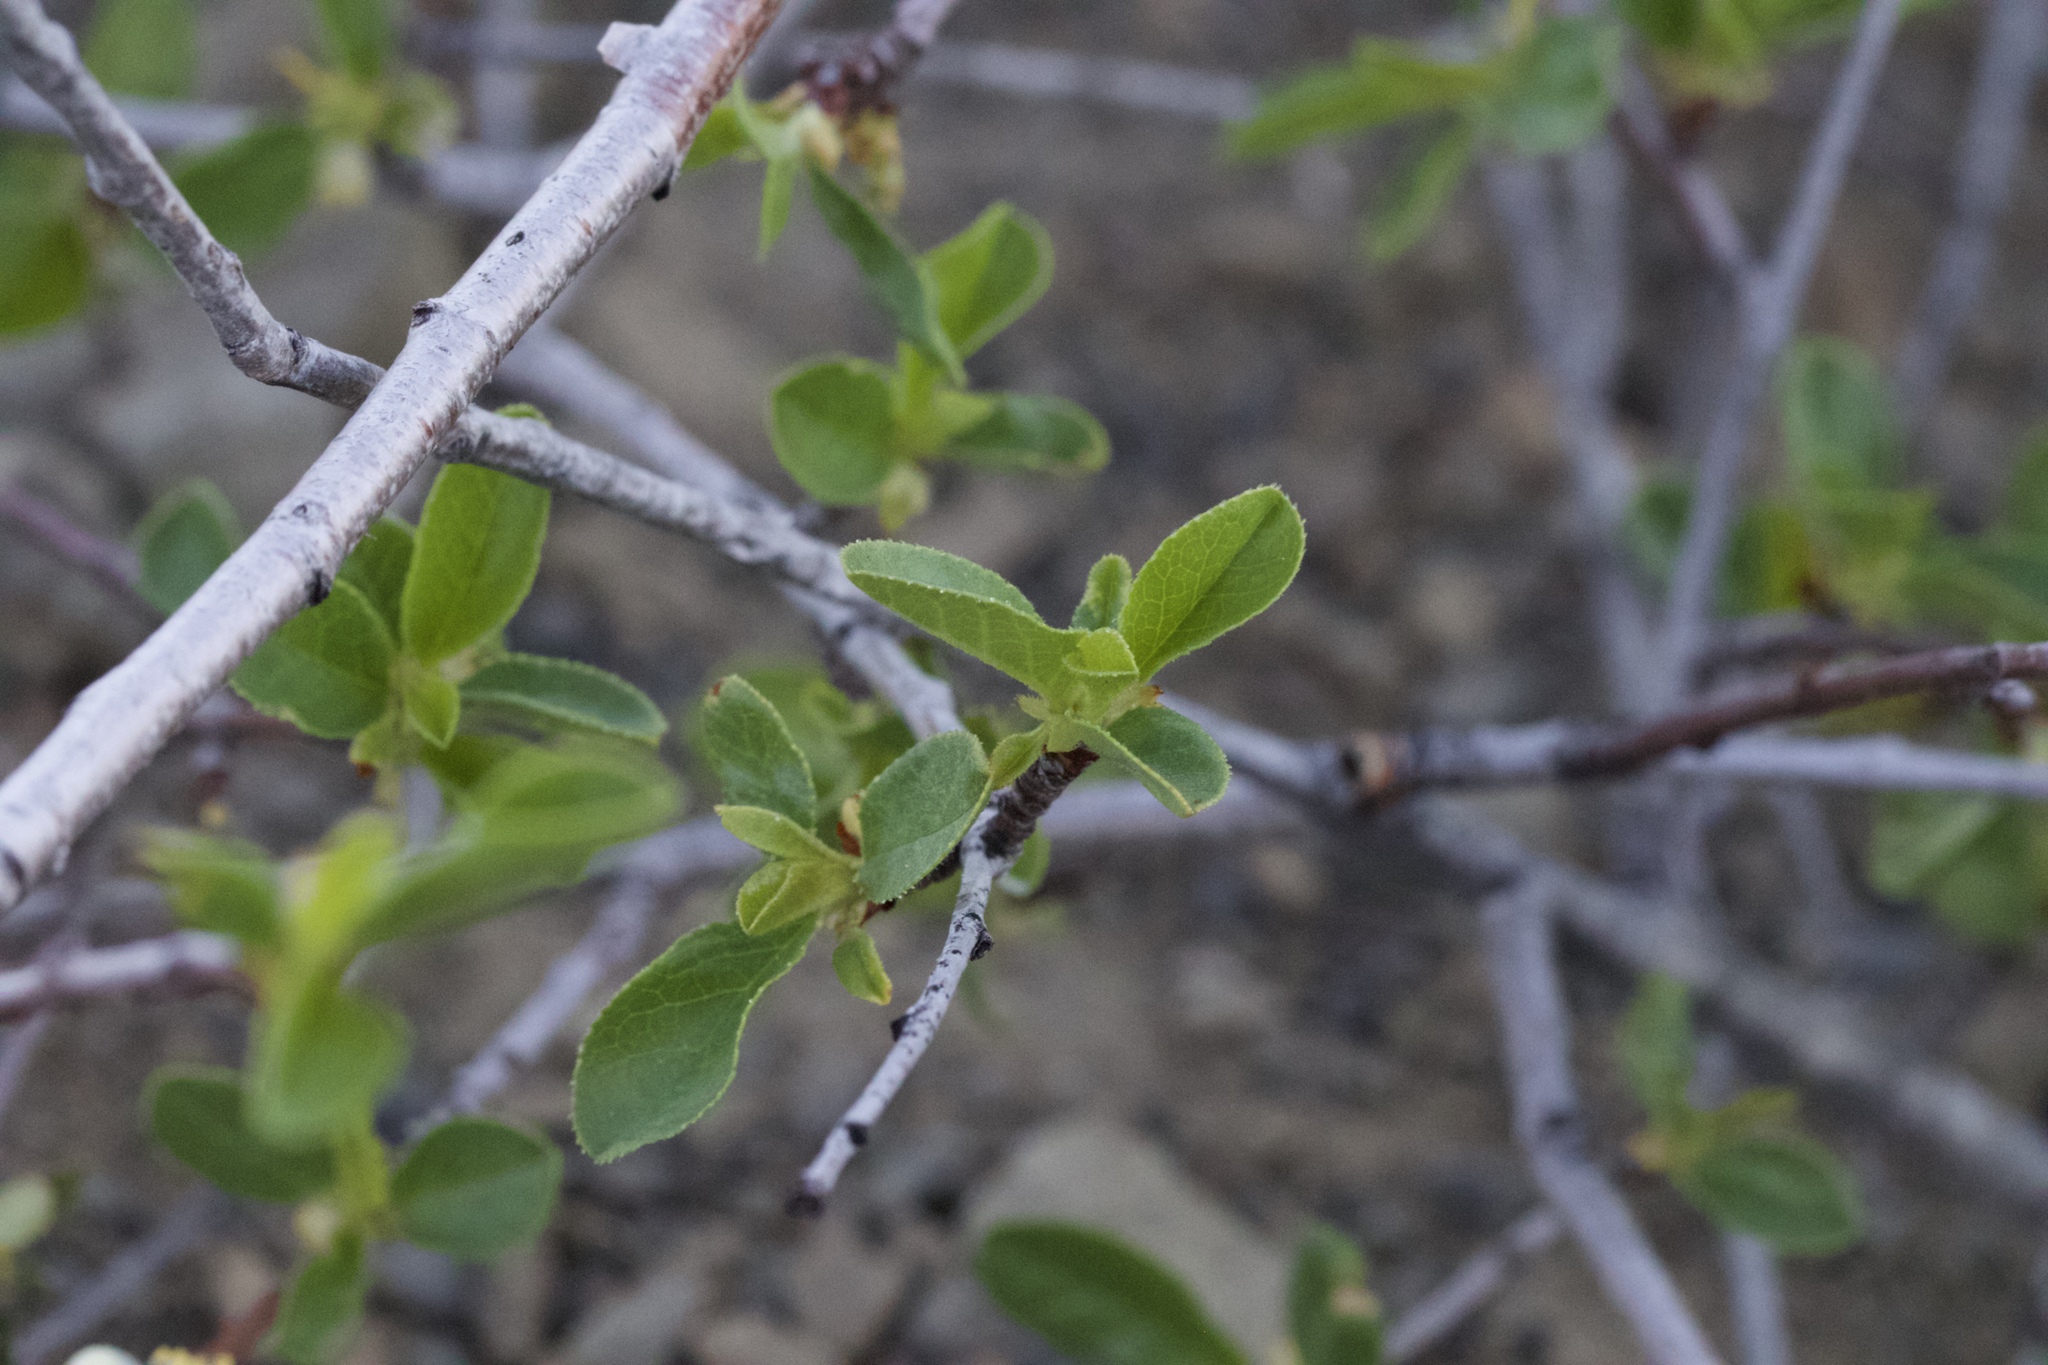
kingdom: Plantae
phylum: Tracheophyta
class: Magnoliopsida
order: Rosales
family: Rosaceae
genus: Prunus
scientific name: Prunus emarginata
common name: Bitter cherry
